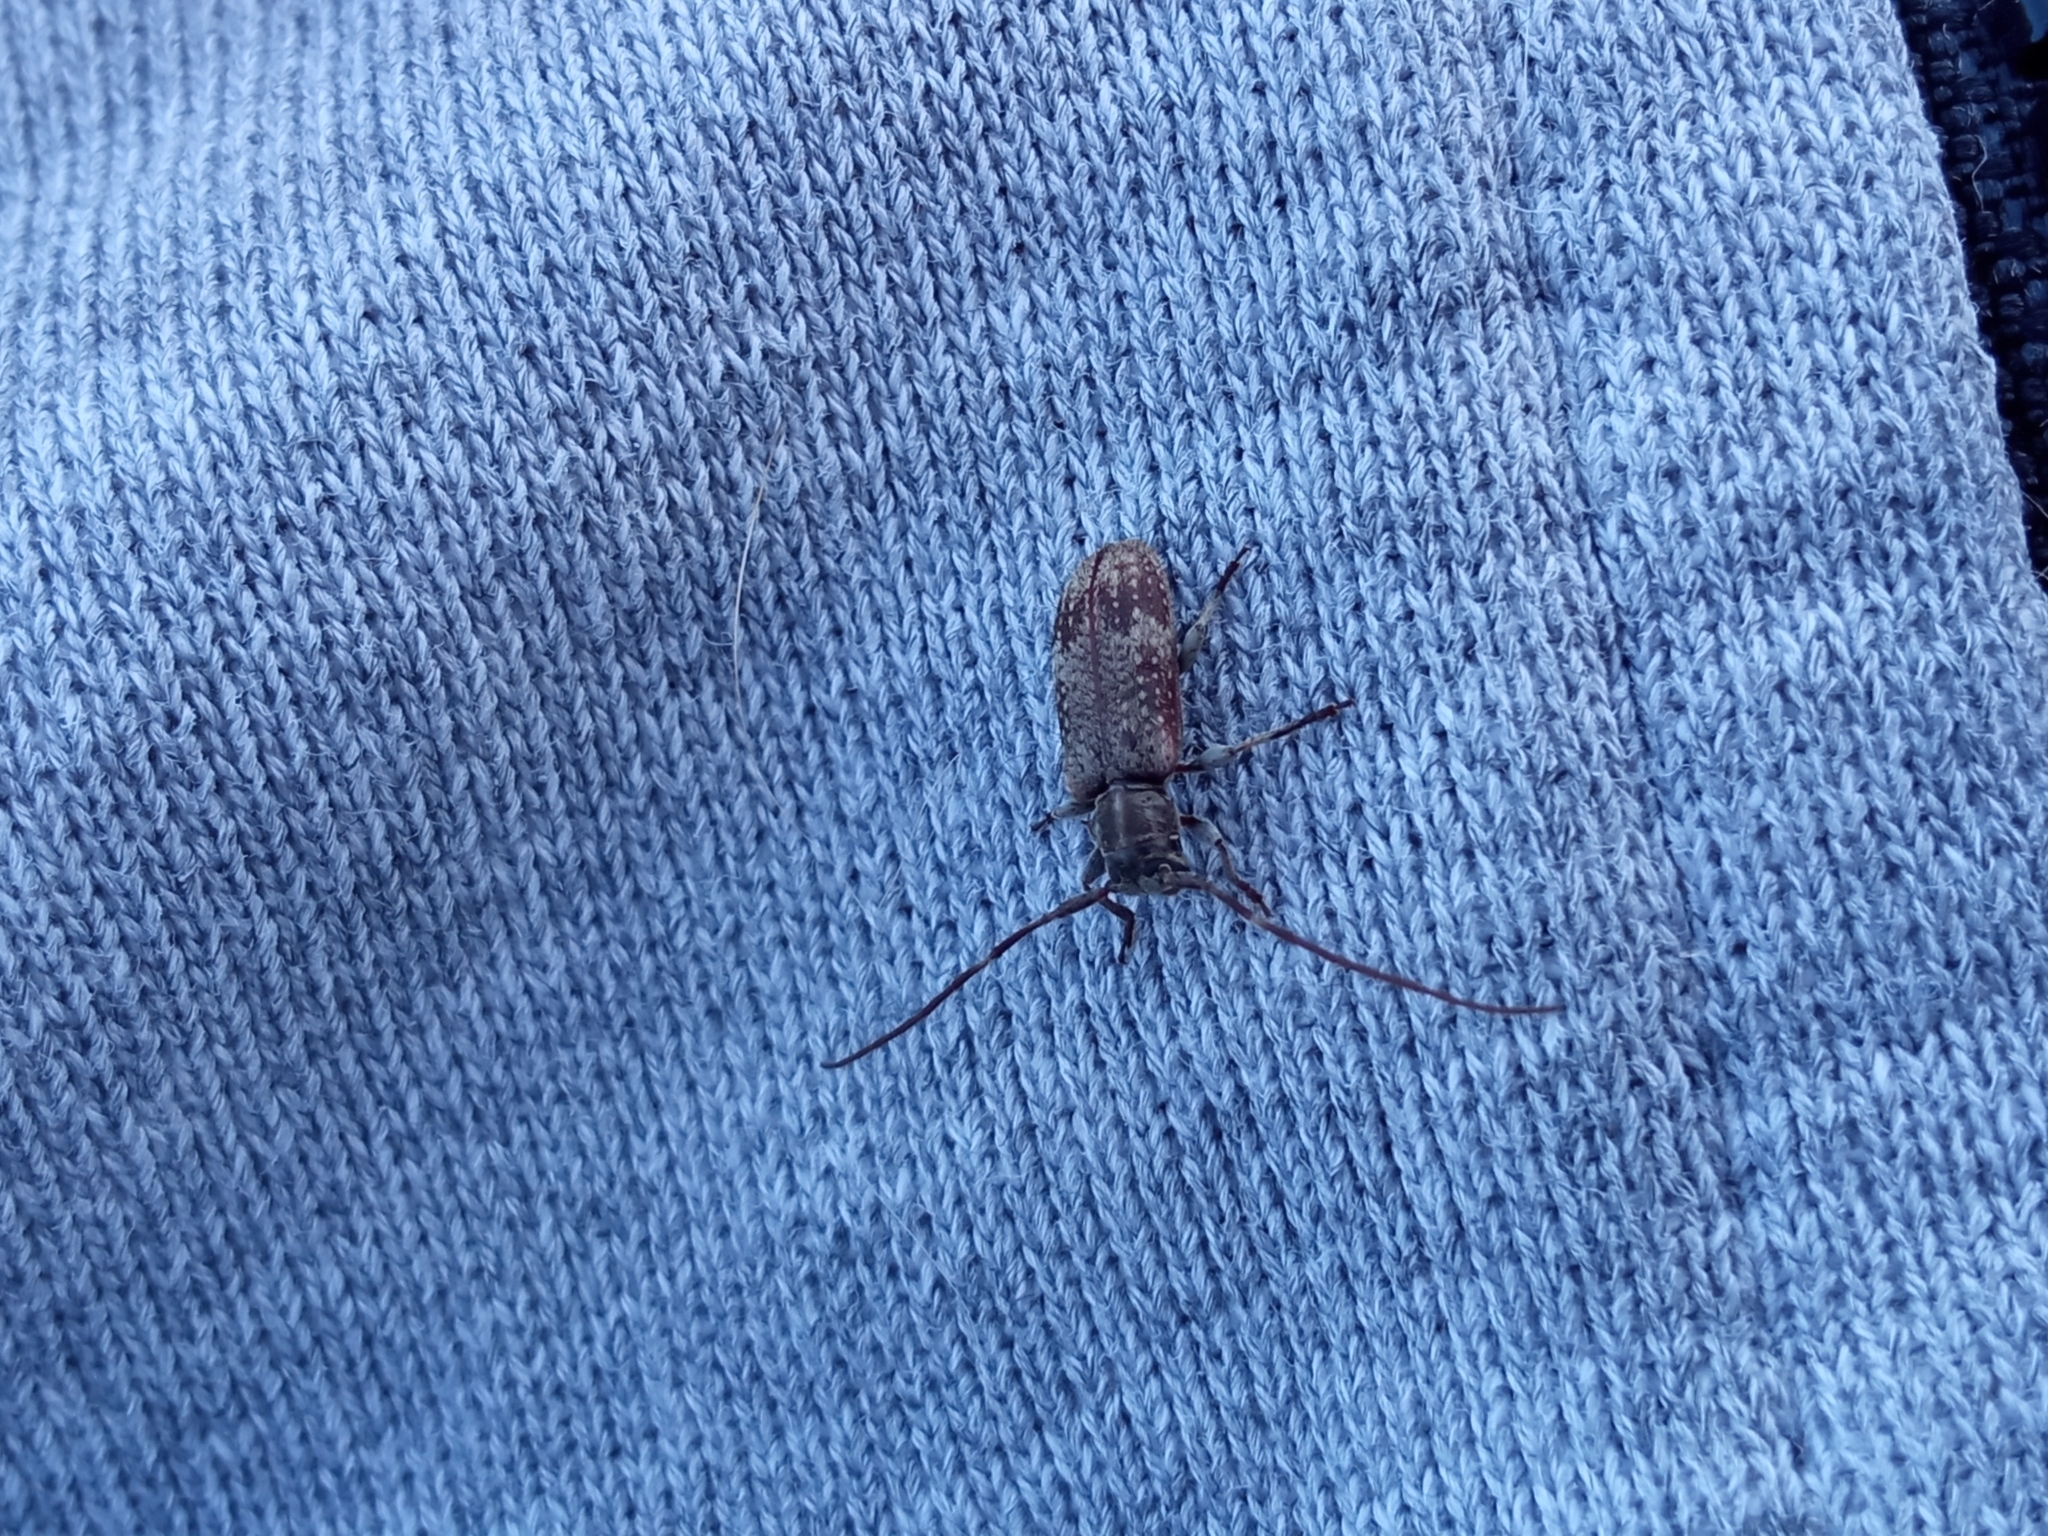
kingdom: Animalia
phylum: Arthropoda
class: Insecta
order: Coleoptera
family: Cerambycidae
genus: Exocentrus
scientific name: Exocentrus adspersus
